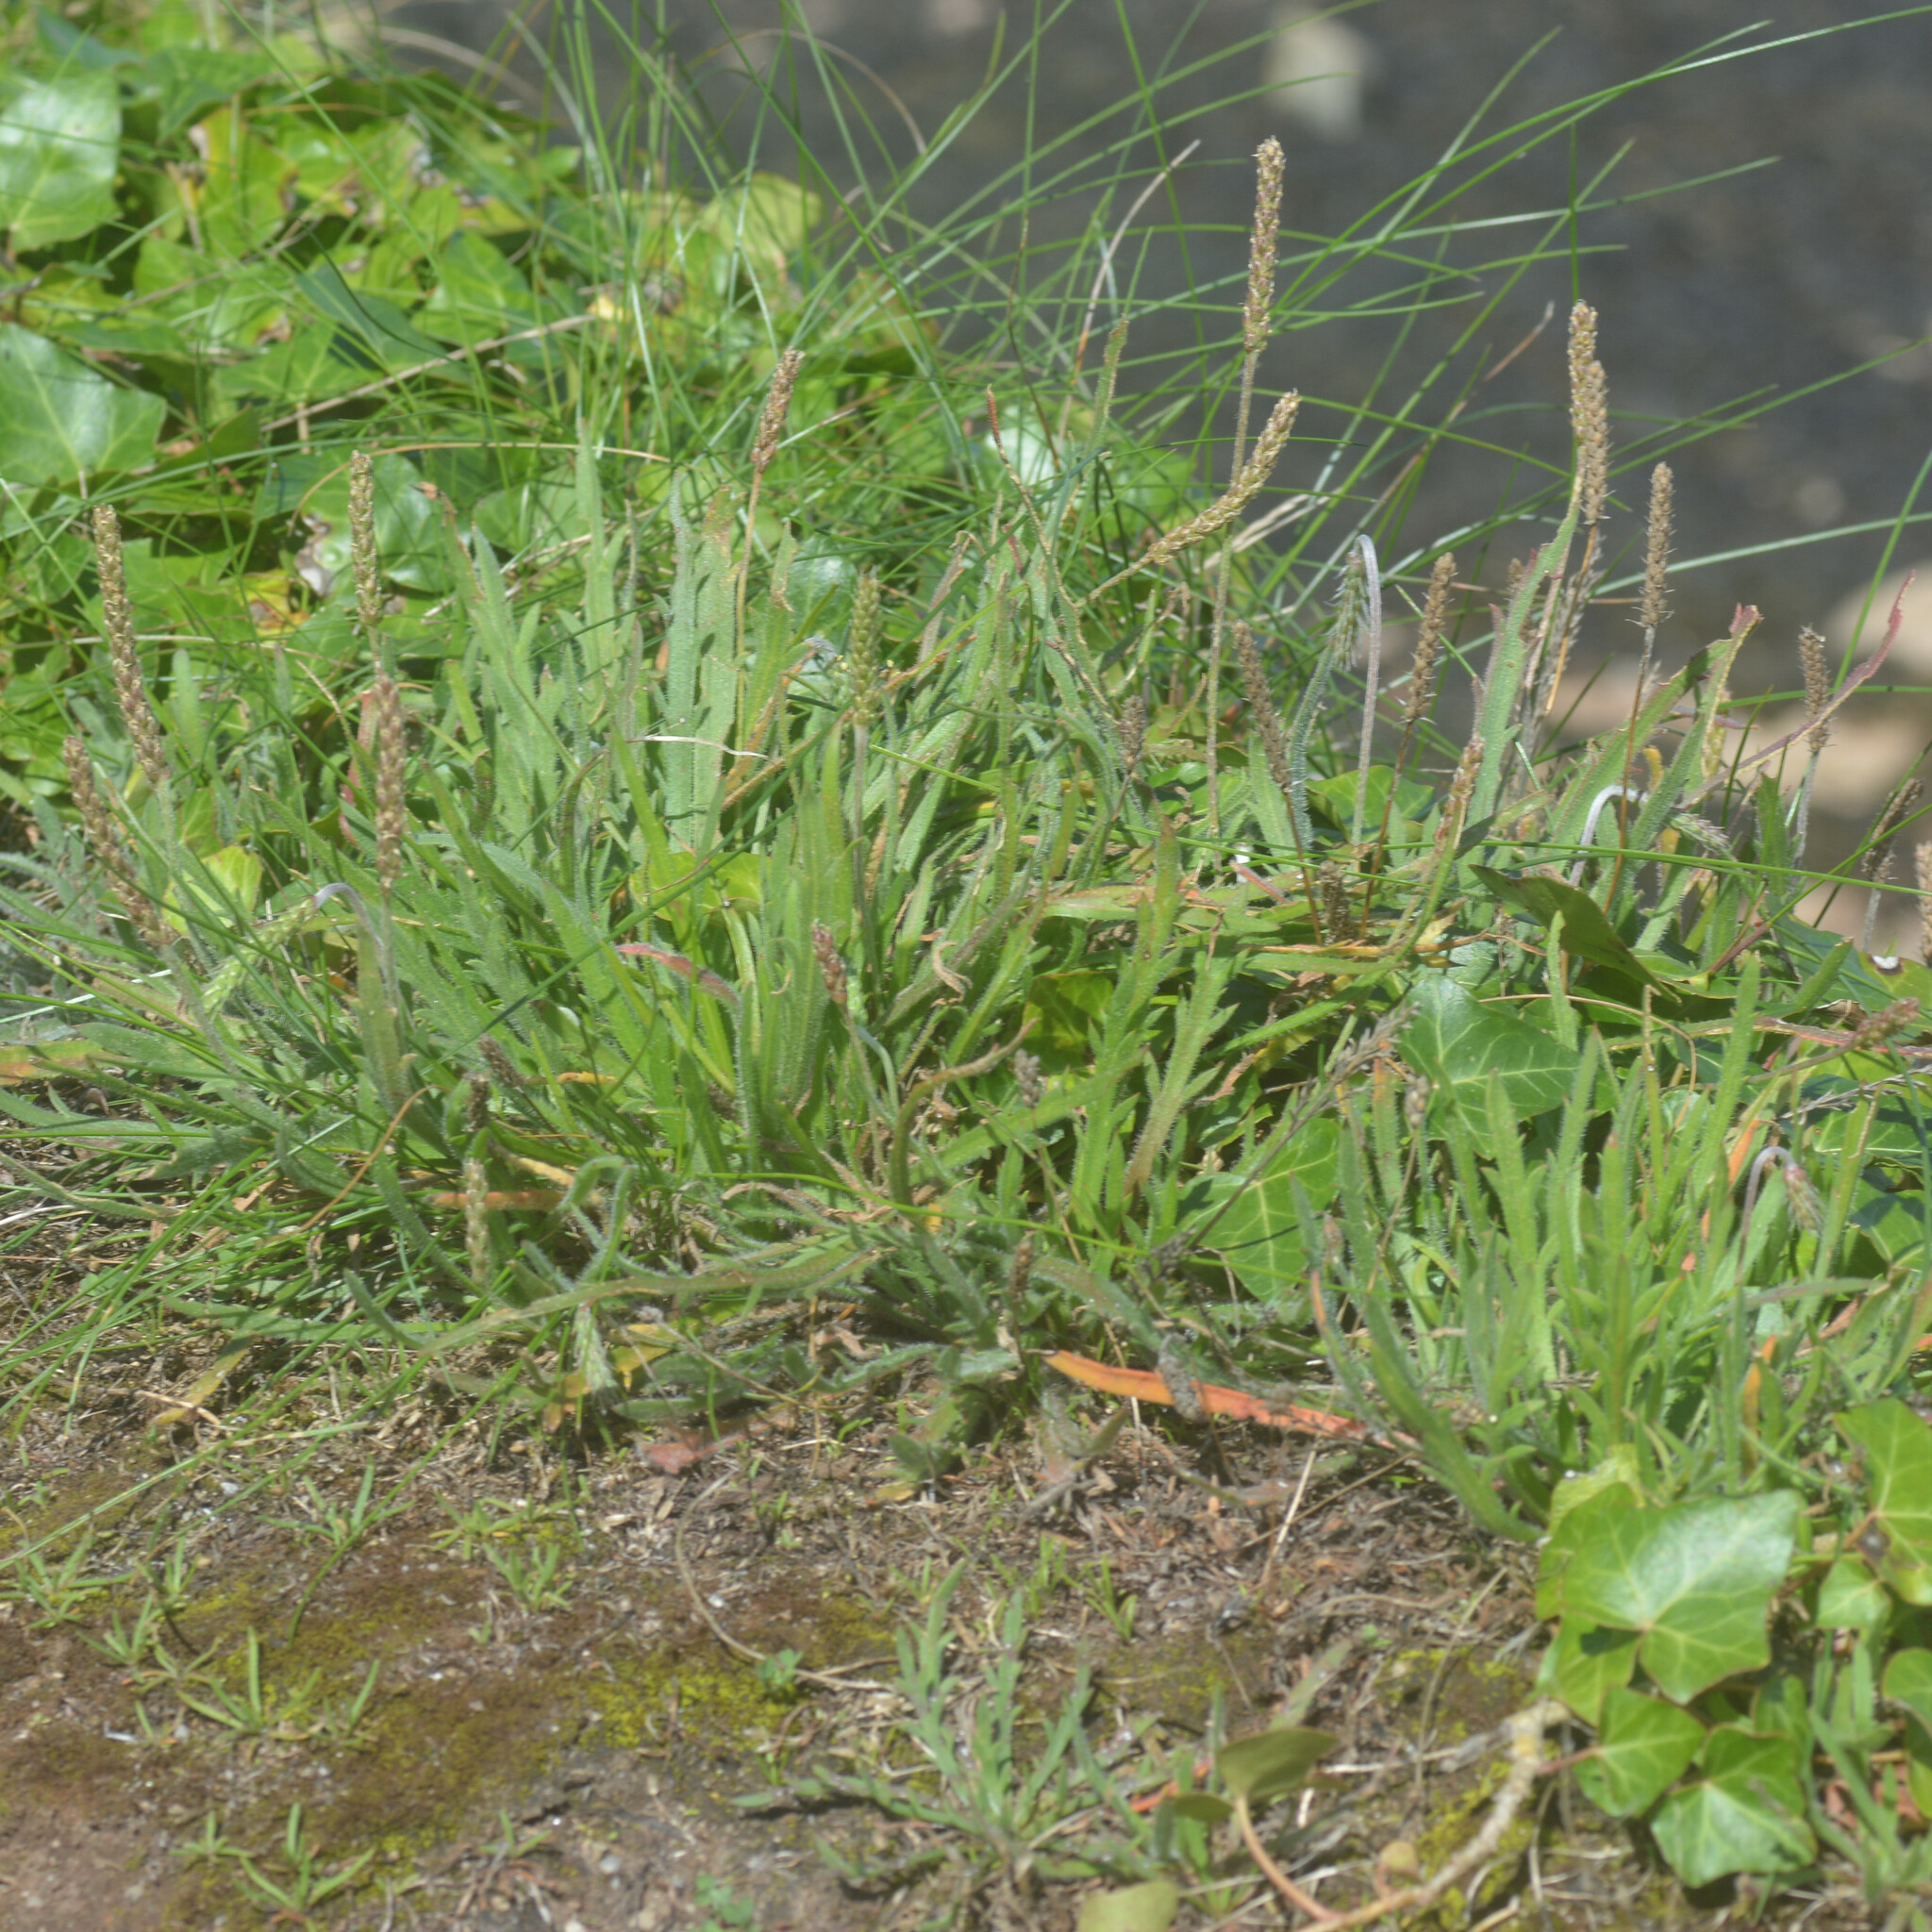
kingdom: Plantae
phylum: Tracheophyta
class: Magnoliopsida
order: Lamiales
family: Plantaginaceae
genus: Plantago
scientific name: Plantago coronopus
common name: Buck's-horn plantain
